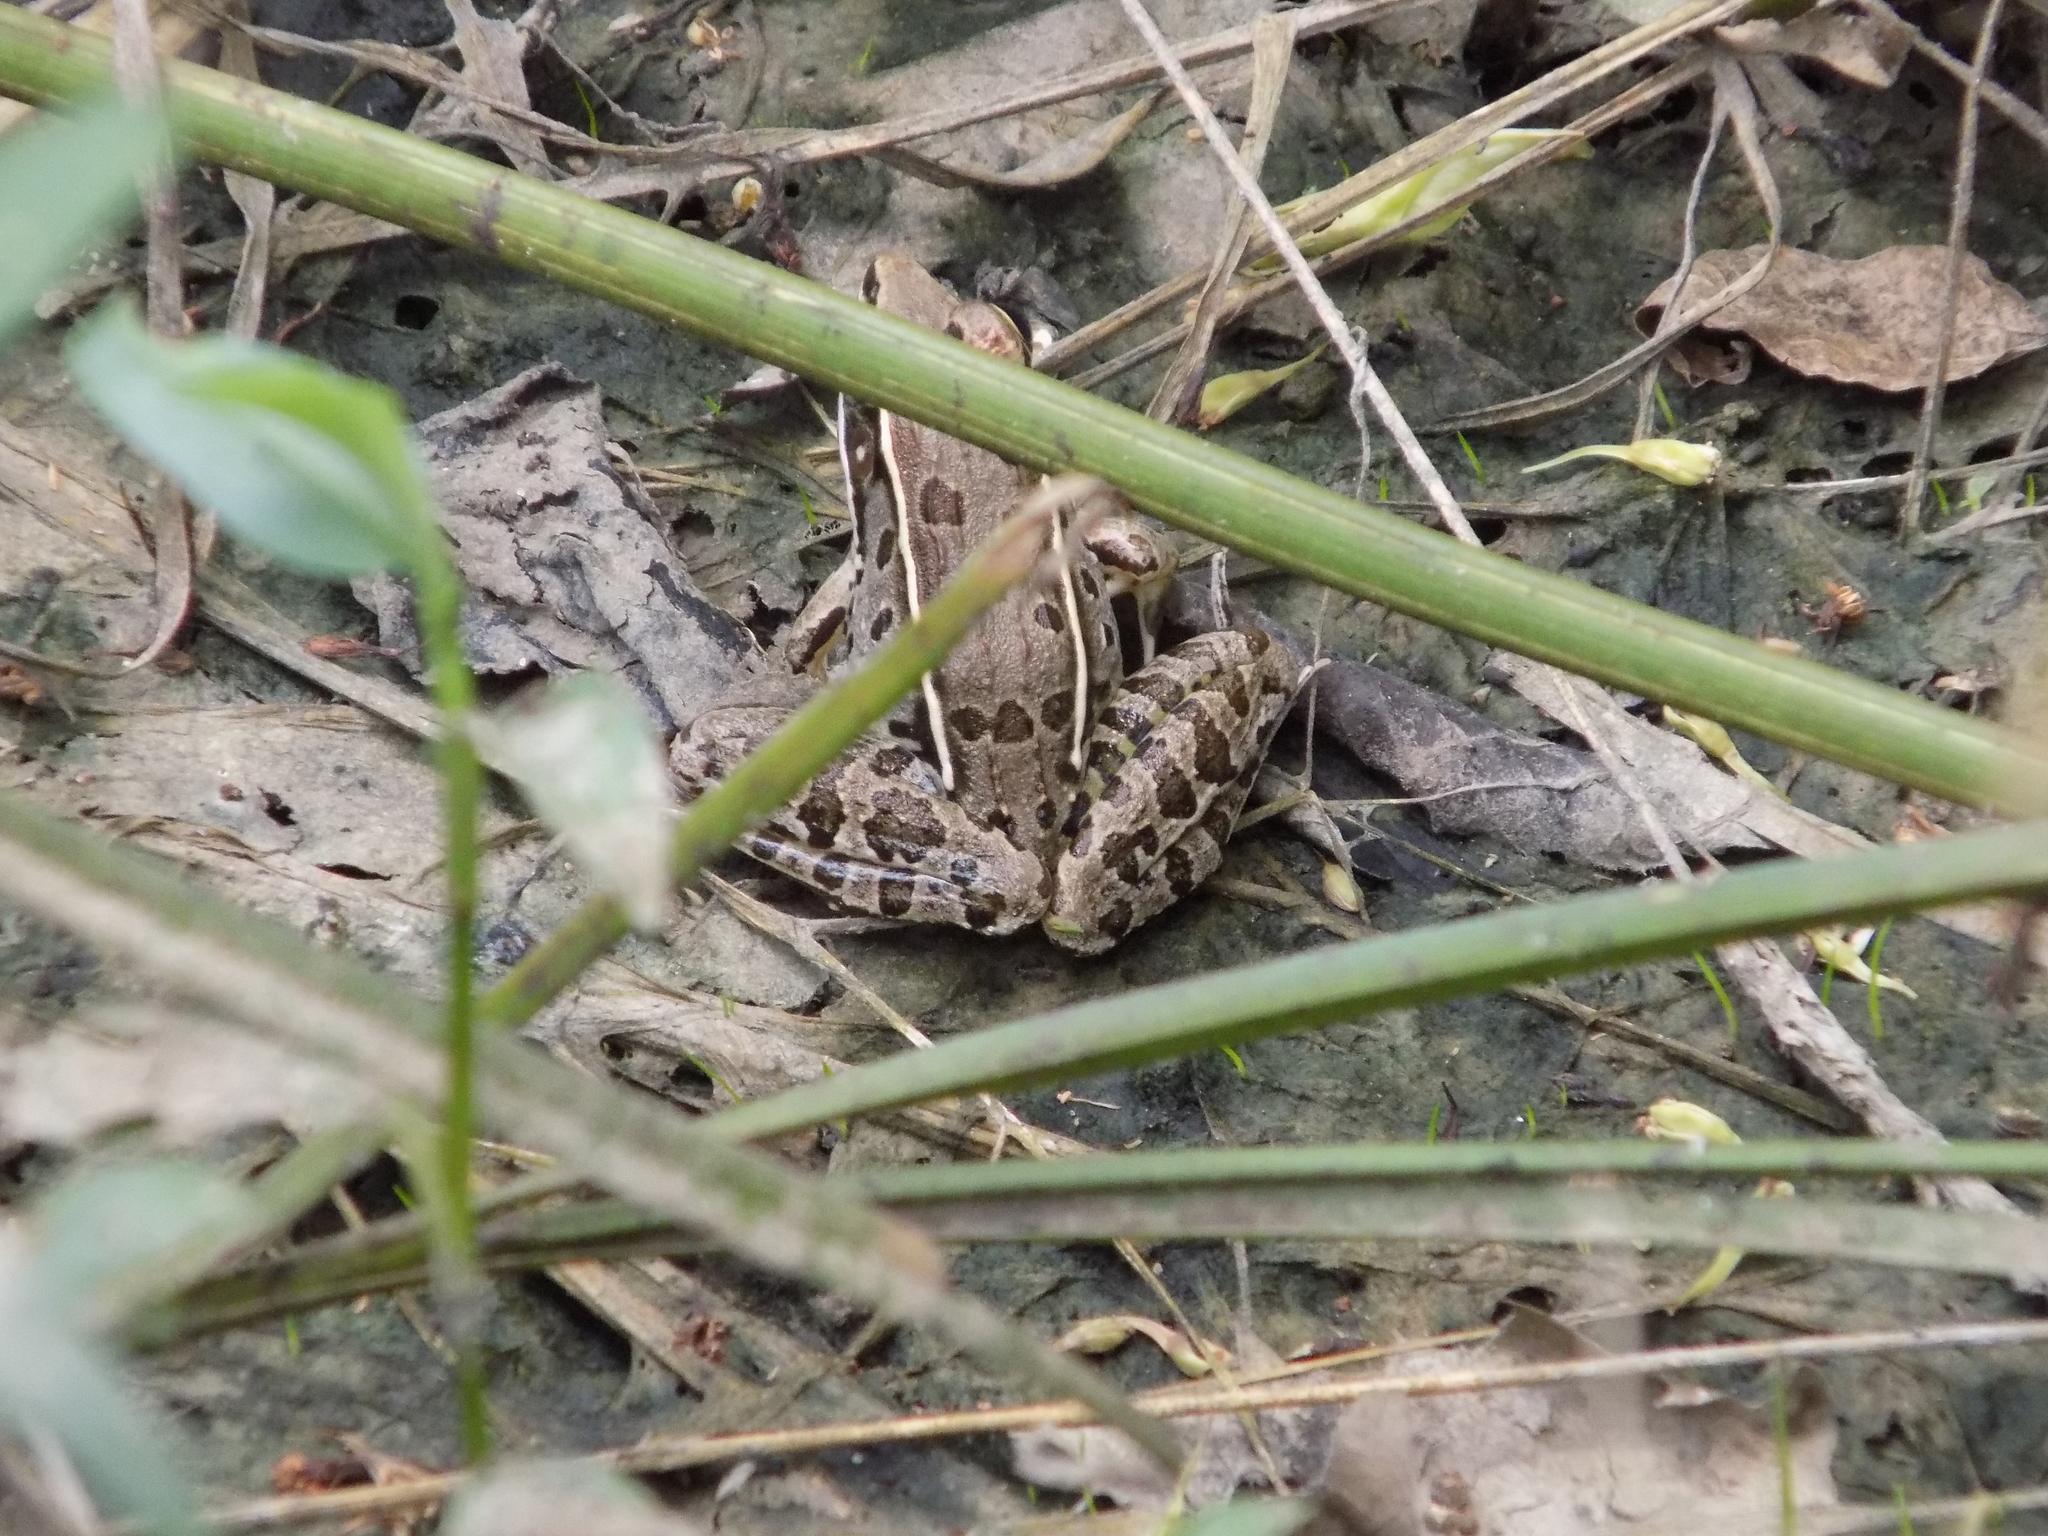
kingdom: Animalia
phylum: Chordata
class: Amphibia
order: Anura
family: Ranidae
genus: Lithobates
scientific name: Lithobates sphenocephalus
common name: Southern leopard frog
